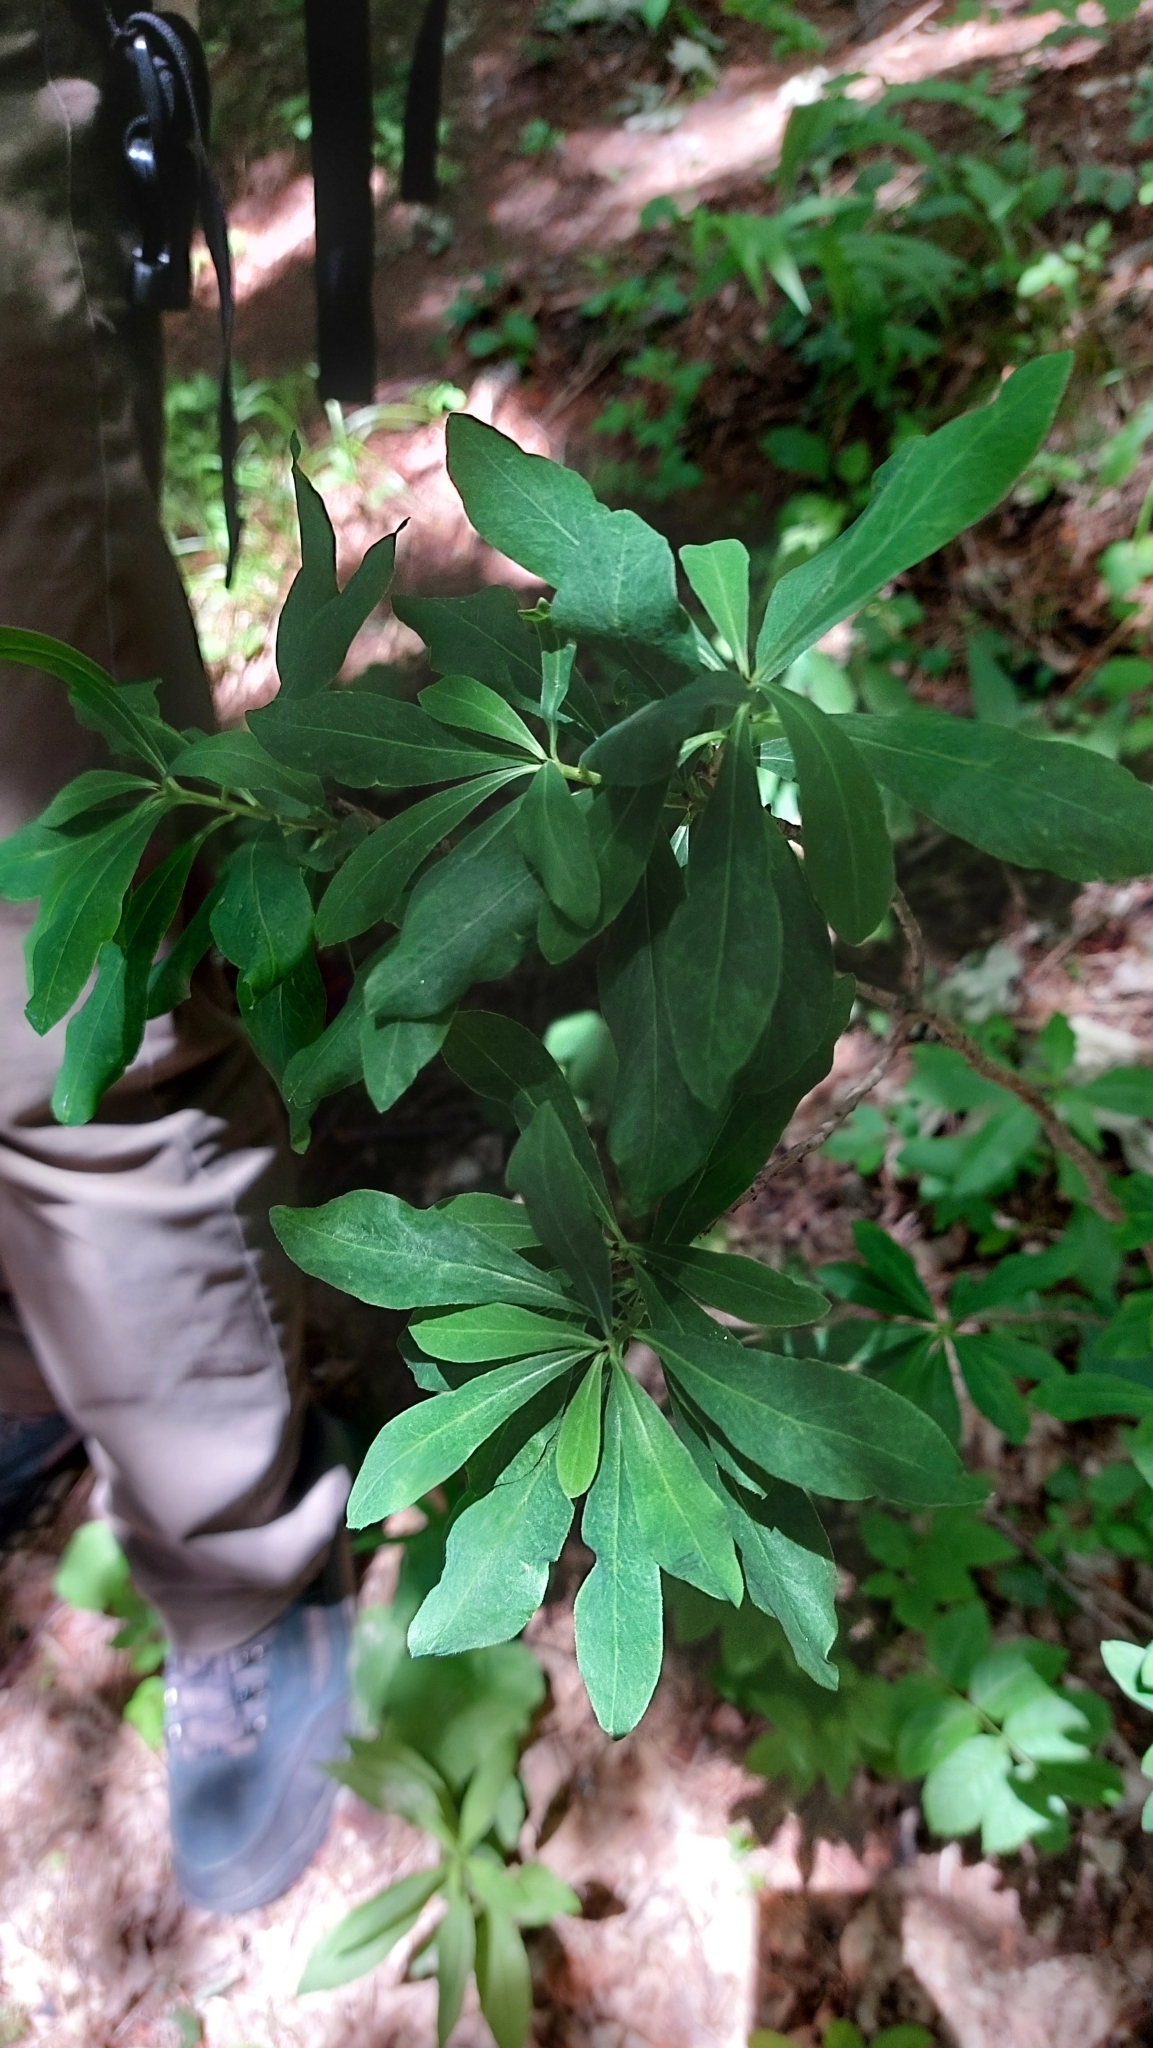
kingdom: Plantae
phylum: Tracheophyta
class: Magnoliopsida
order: Malvales
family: Thymelaeaceae
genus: Daphne
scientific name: Daphne mezereum
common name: Mezereon
